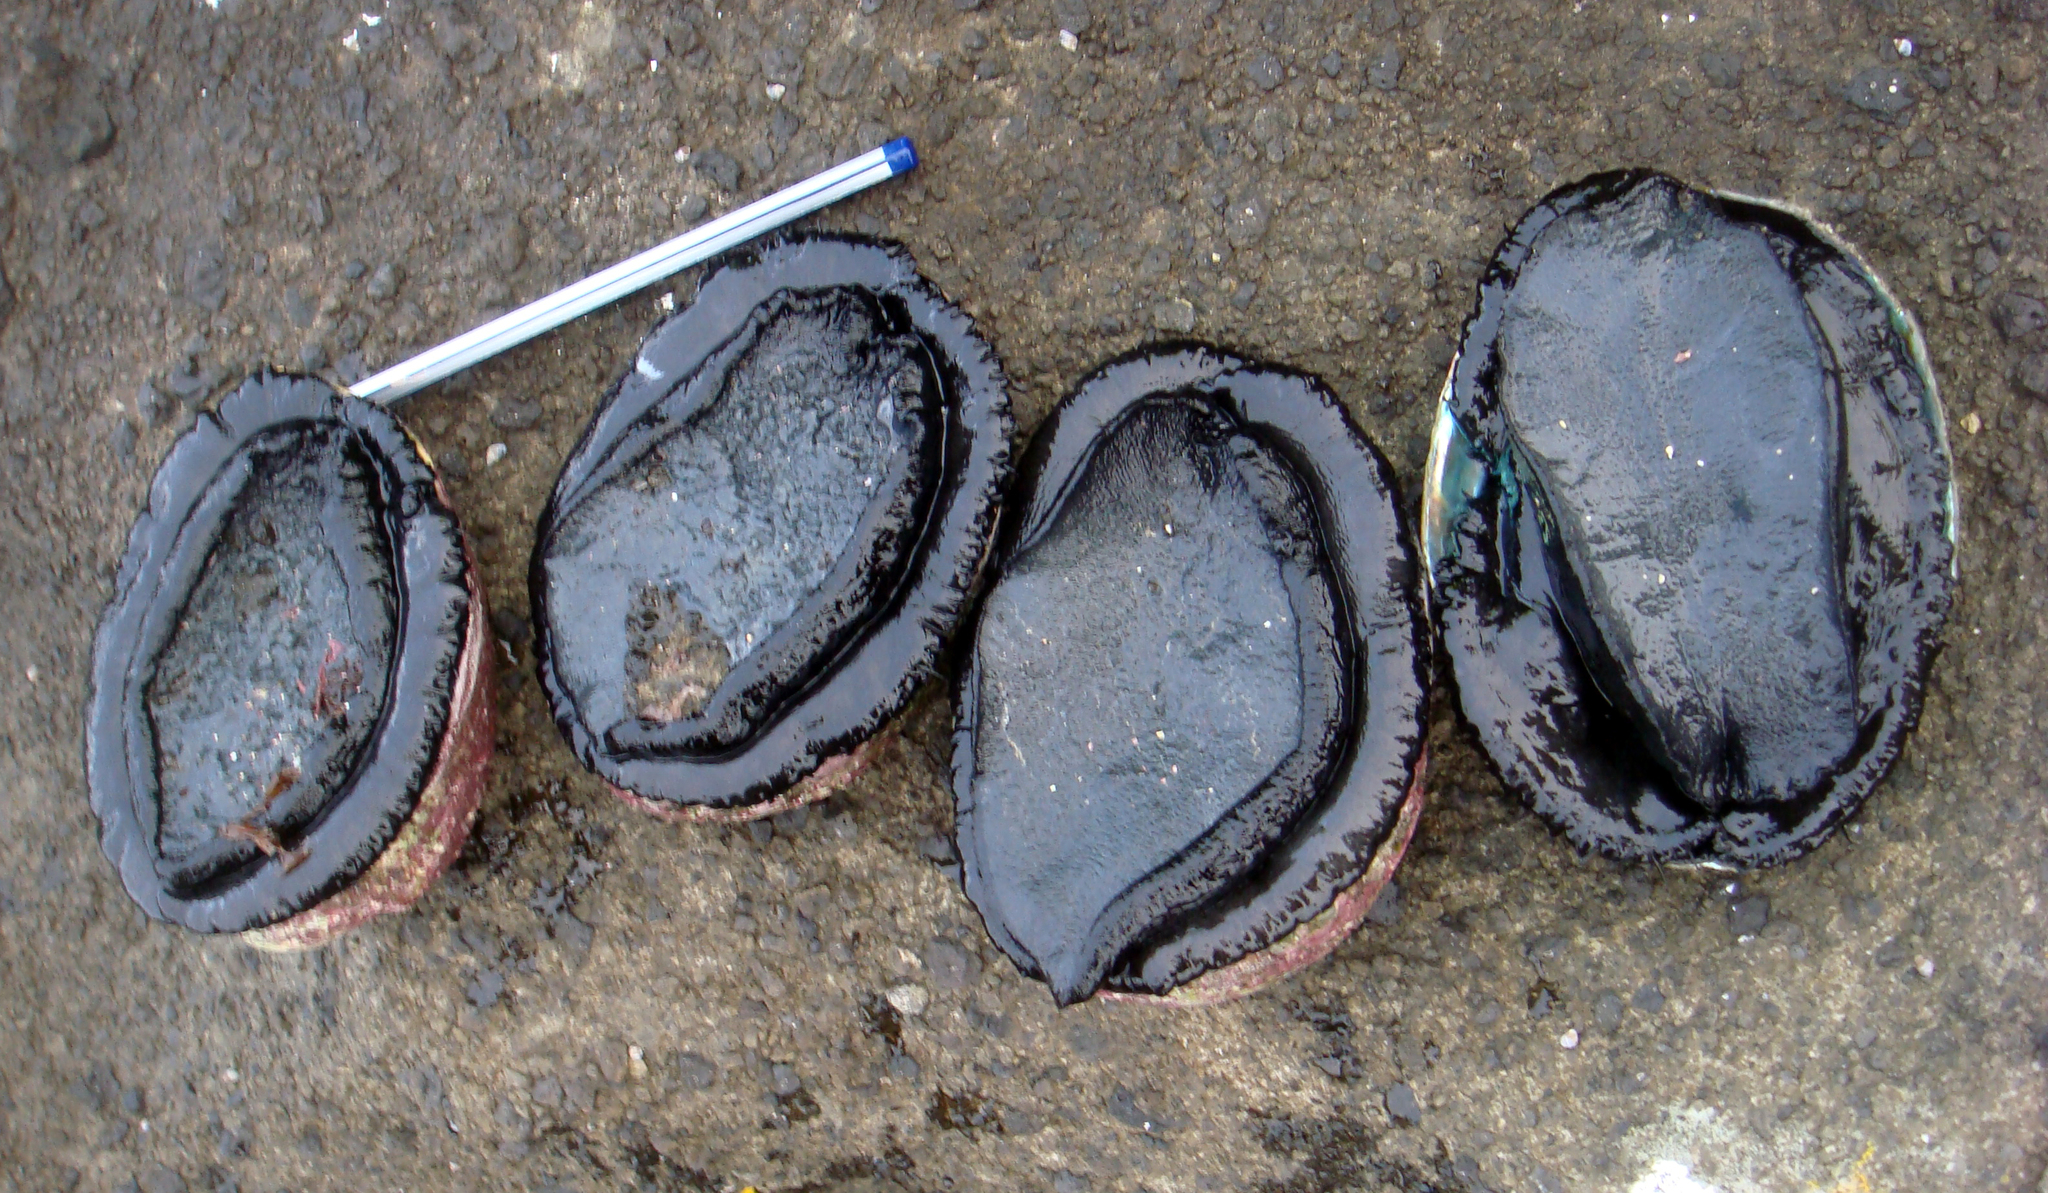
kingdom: Animalia
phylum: Mollusca
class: Gastropoda
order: Lepetellida
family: Haliotidae
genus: Haliotis
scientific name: Haliotis iris
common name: Abalone
